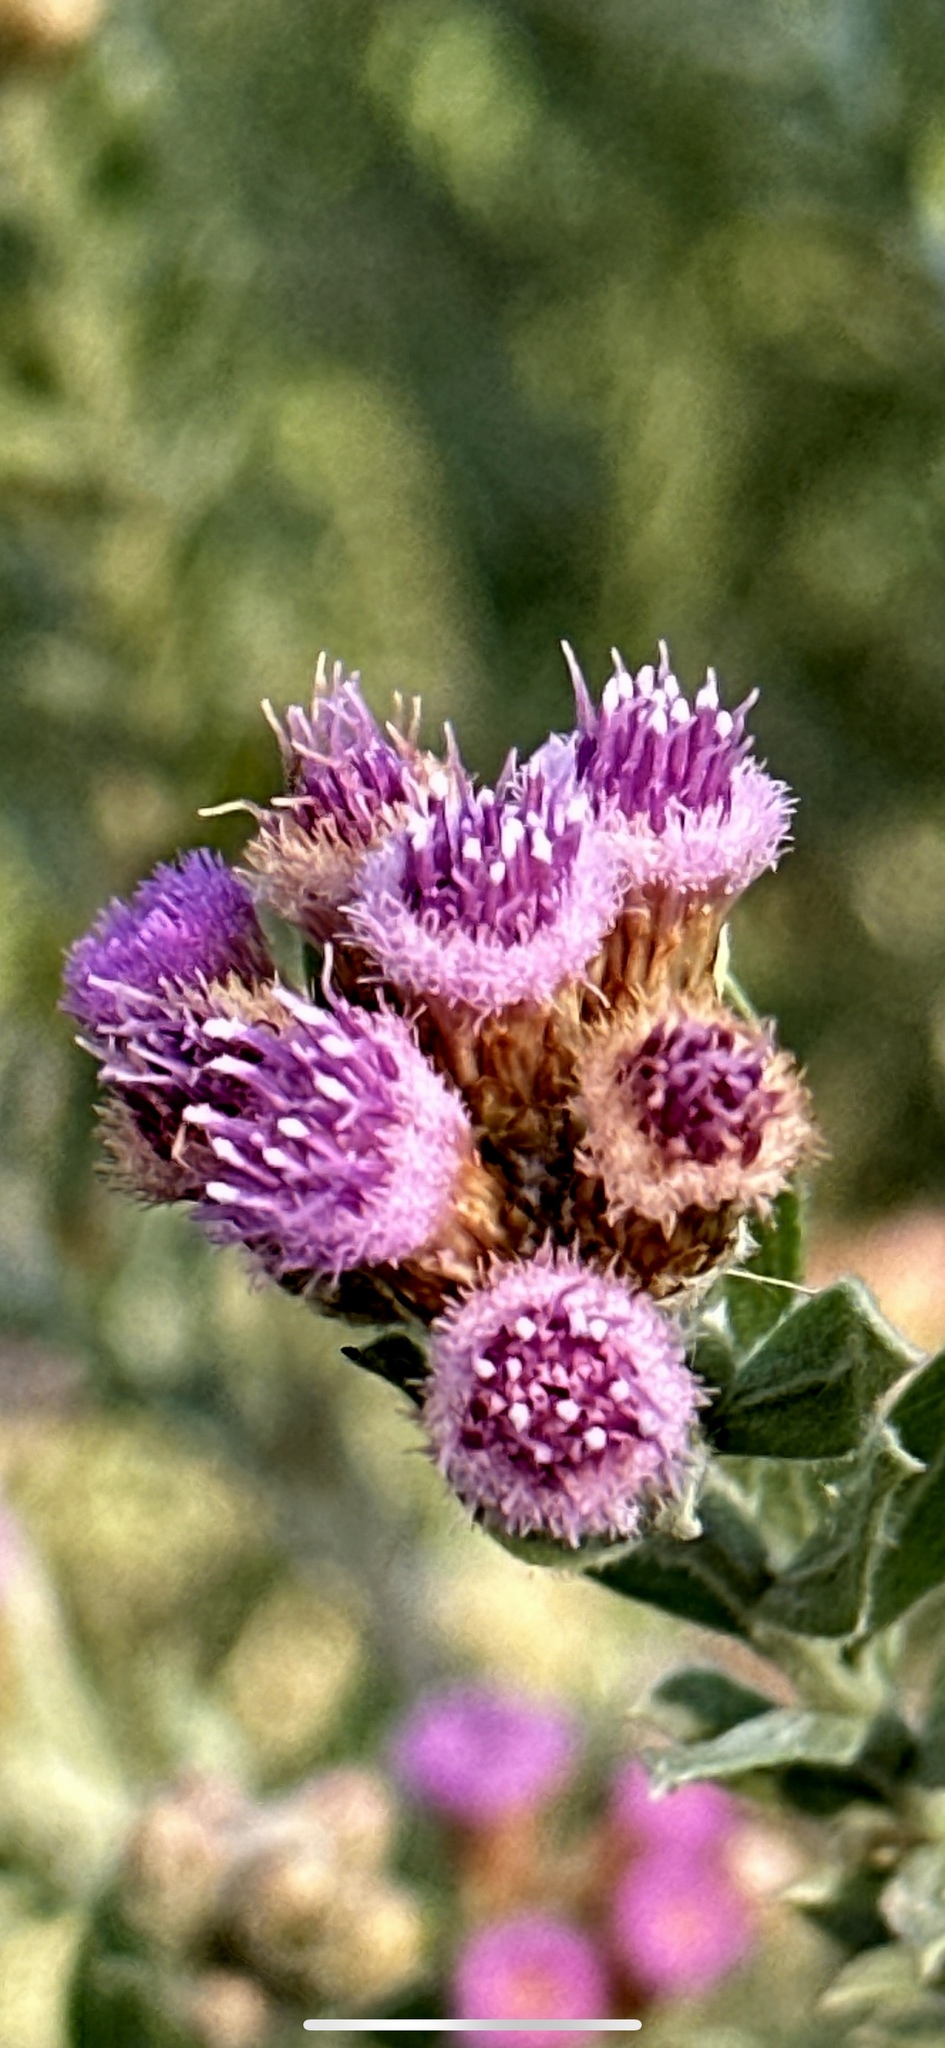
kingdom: Plantae
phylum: Tracheophyta
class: Magnoliopsida
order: Asterales
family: Asteraceae
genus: Pluchea
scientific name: Pluchea sericea
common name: Arrow-weed
